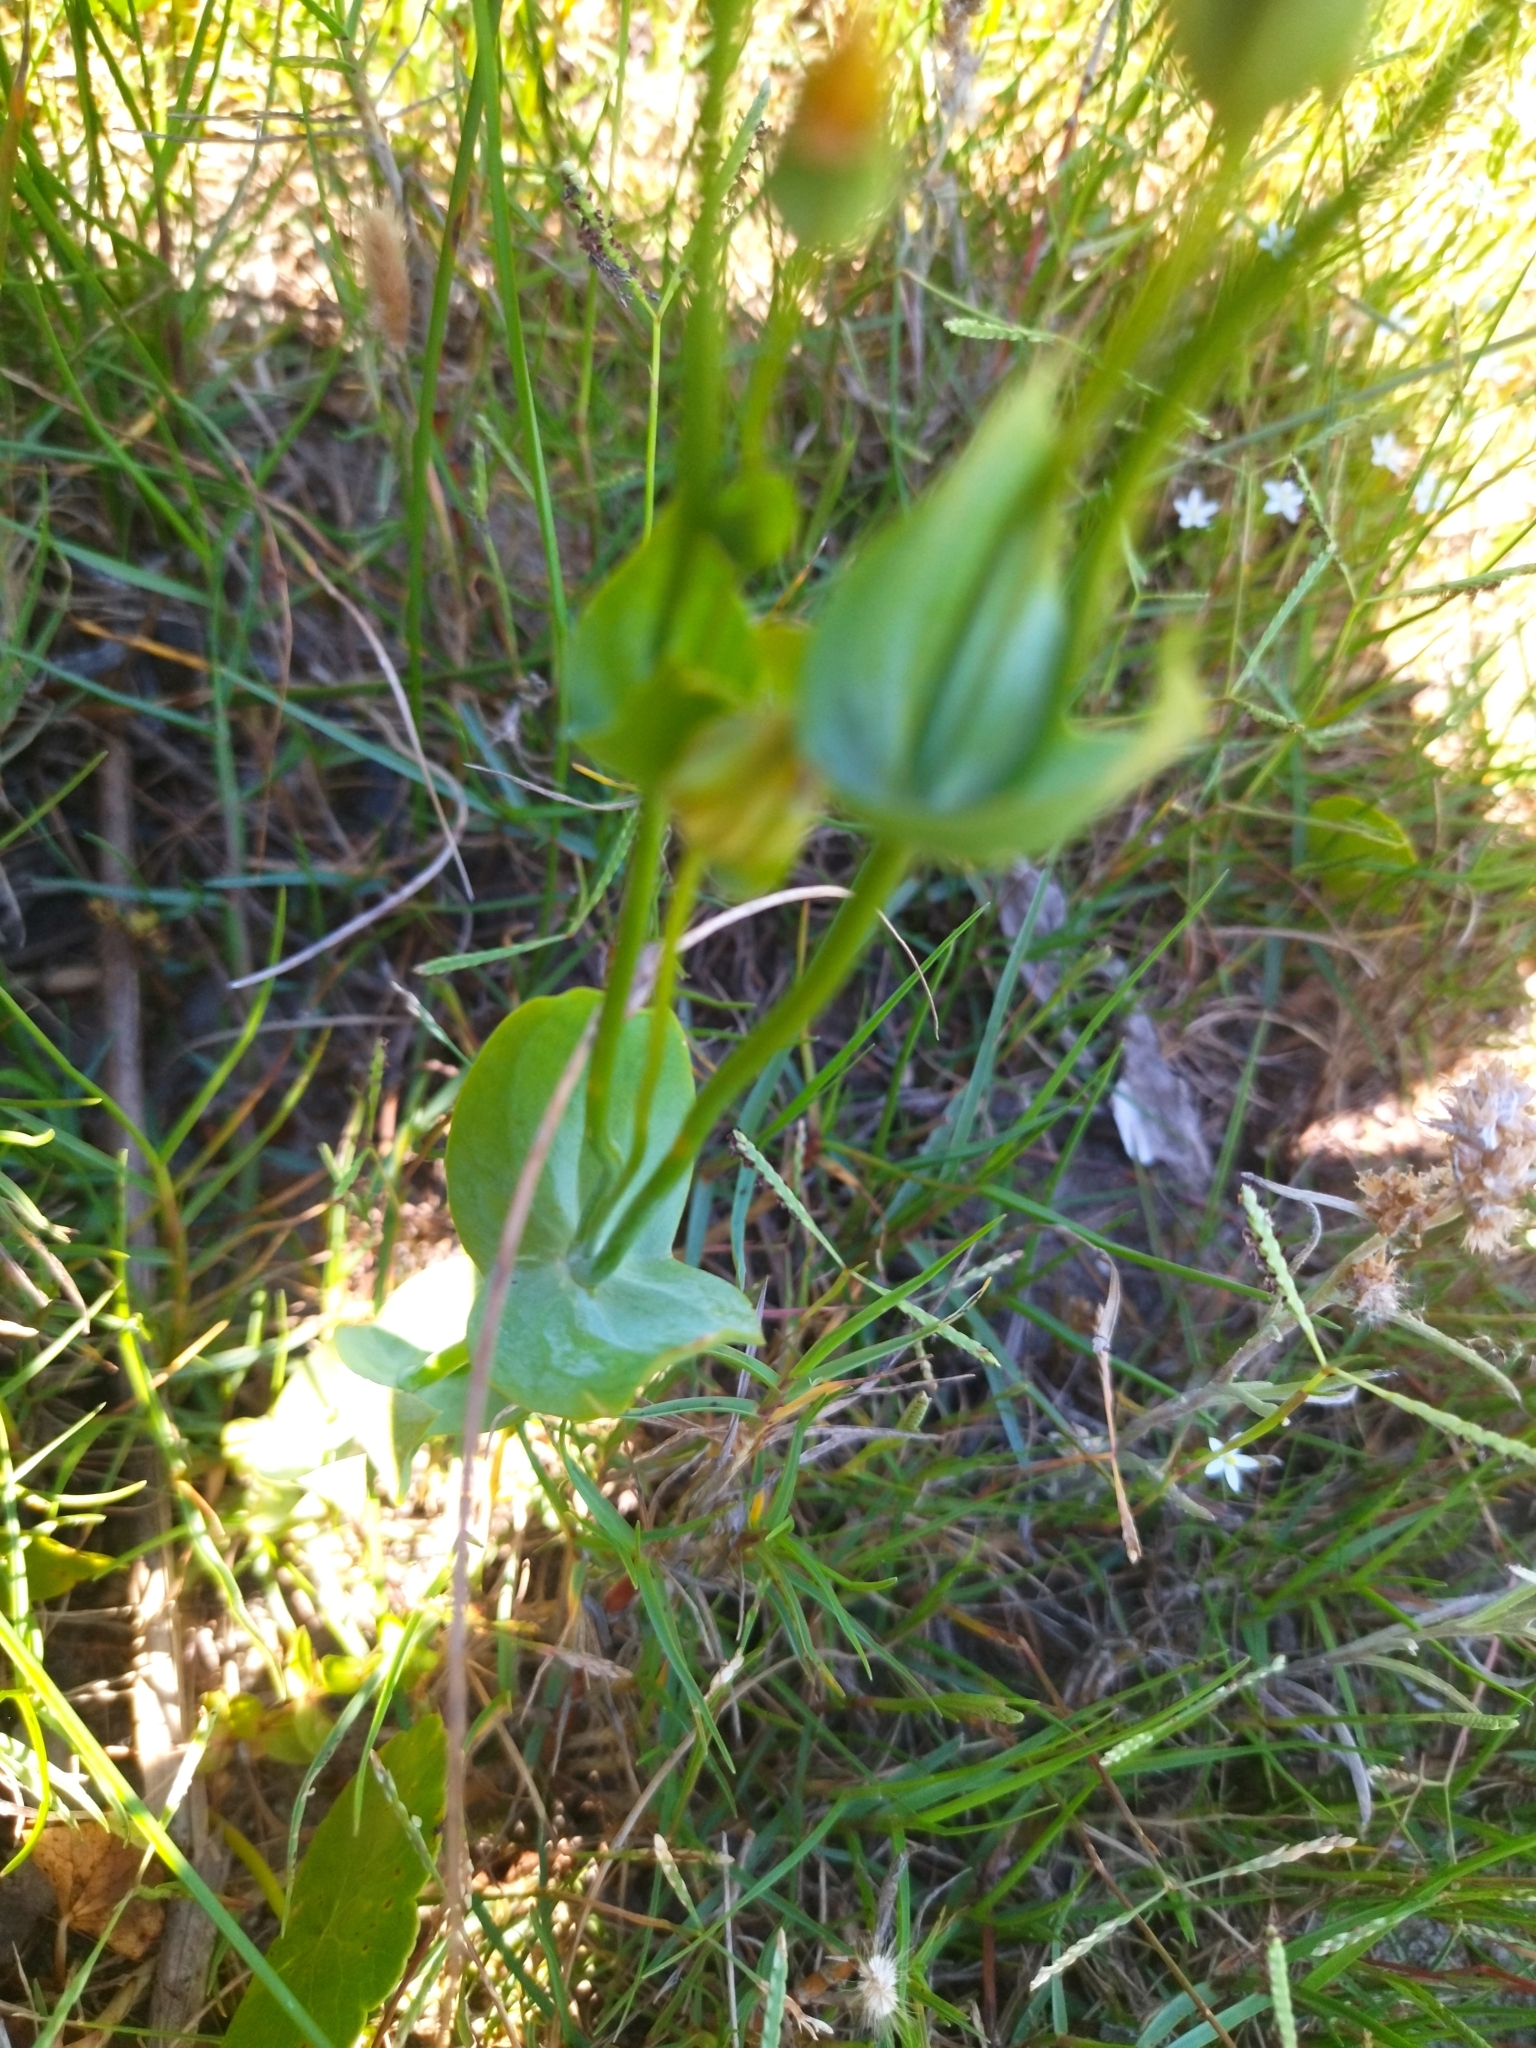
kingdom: Plantae
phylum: Tracheophyta
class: Magnoliopsida
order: Gentianales
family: Gentianaceae
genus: Blackstonia
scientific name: Blackstonia perfoliata
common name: Yellow-wort
